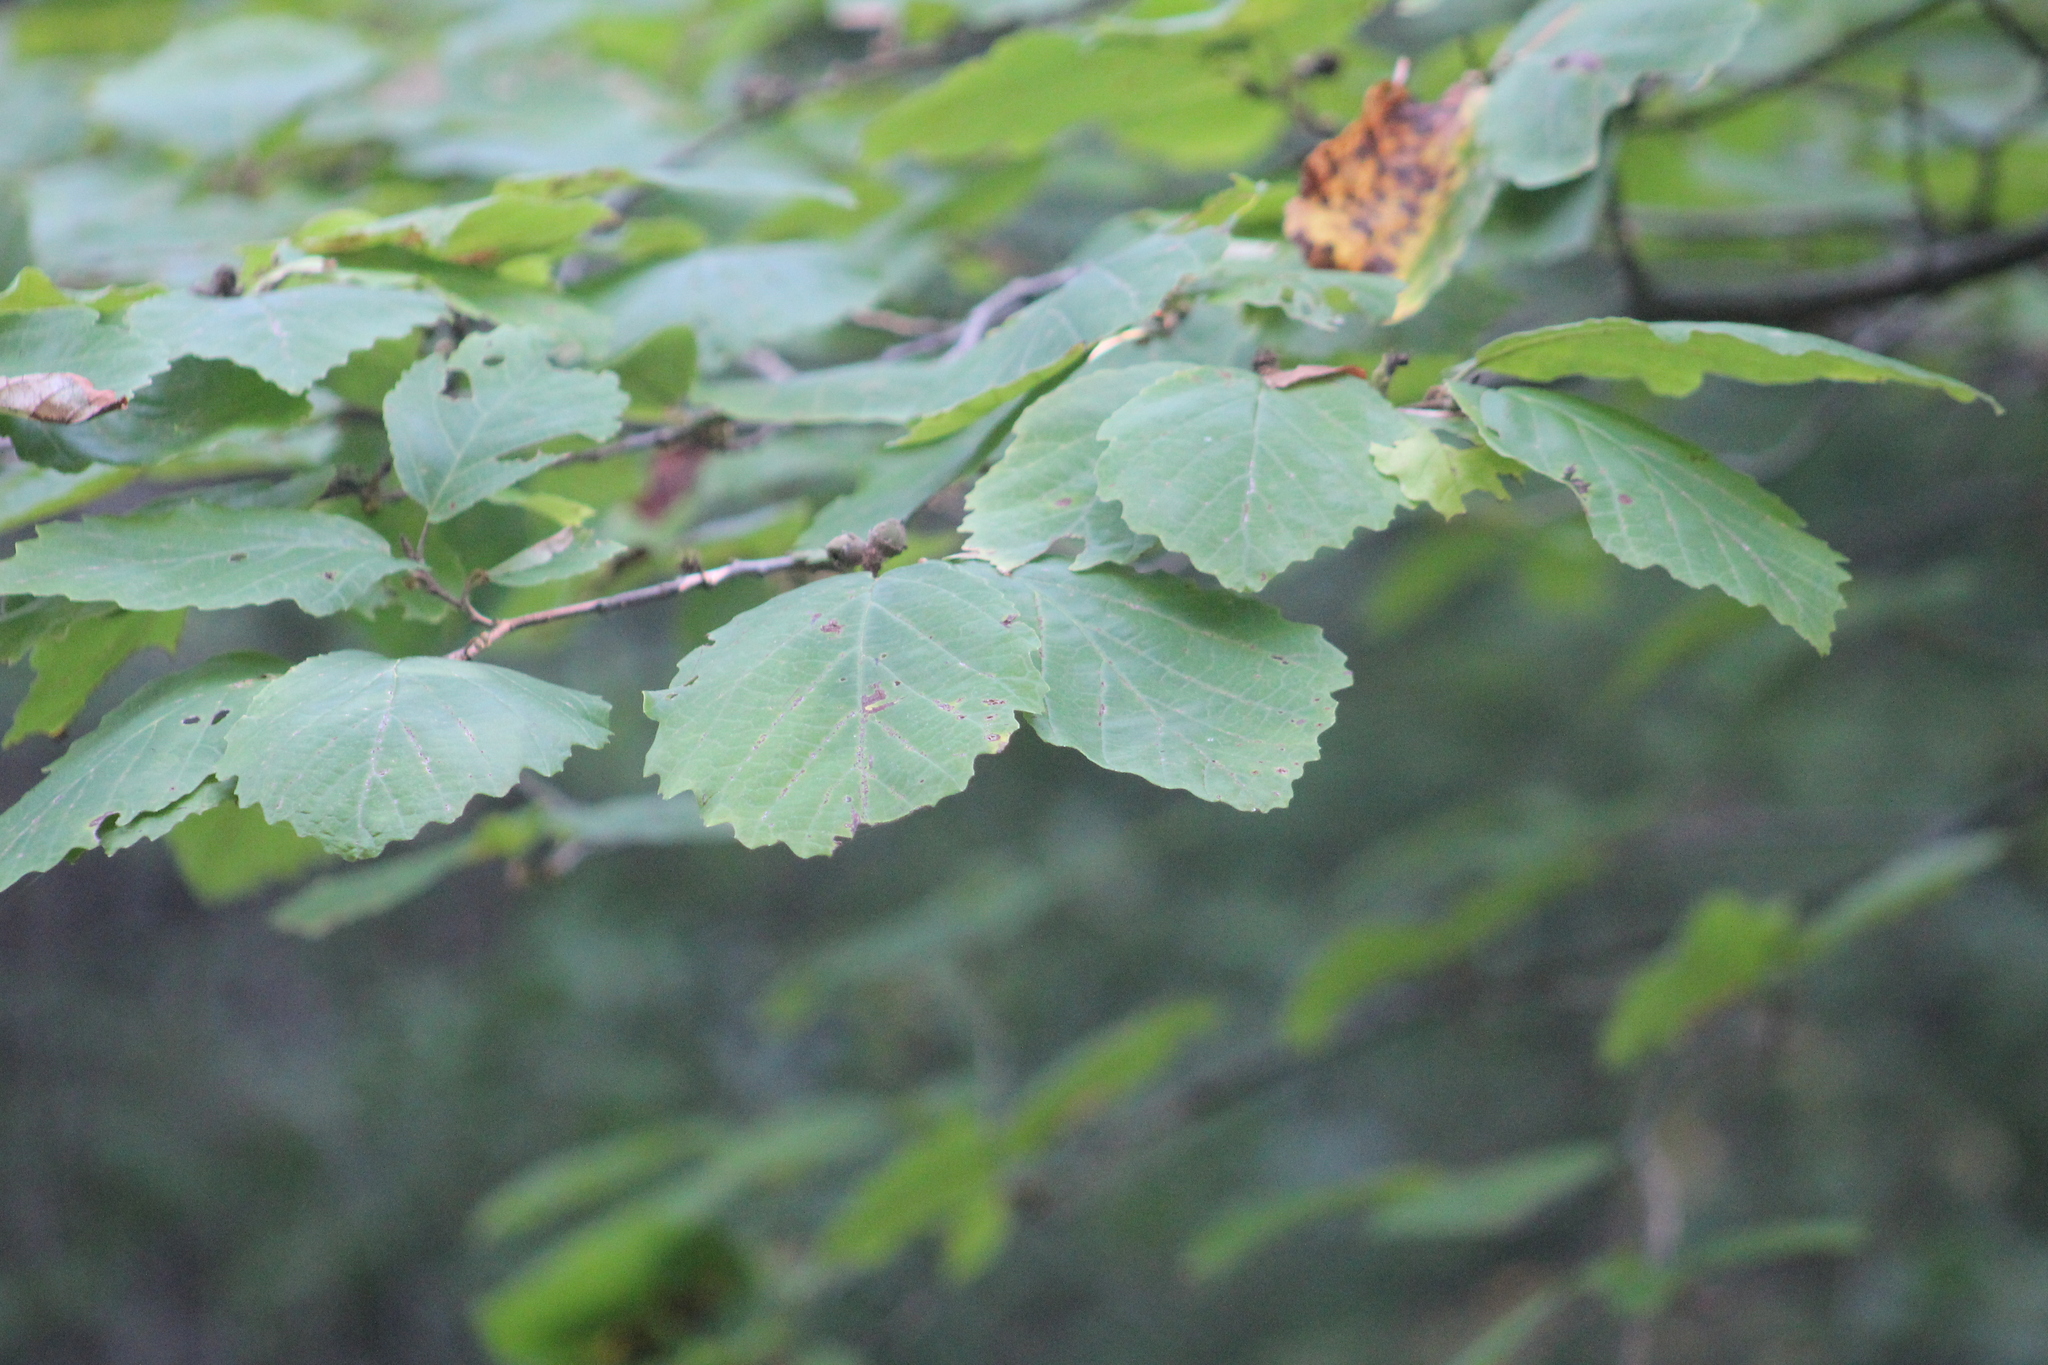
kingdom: Plantae
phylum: Tracheophyta
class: Magnoliopsida
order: Saxifragales
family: Hamamelidaceae
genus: Hamamelis
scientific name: Hamamelis virginiana
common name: Witch-hazel
